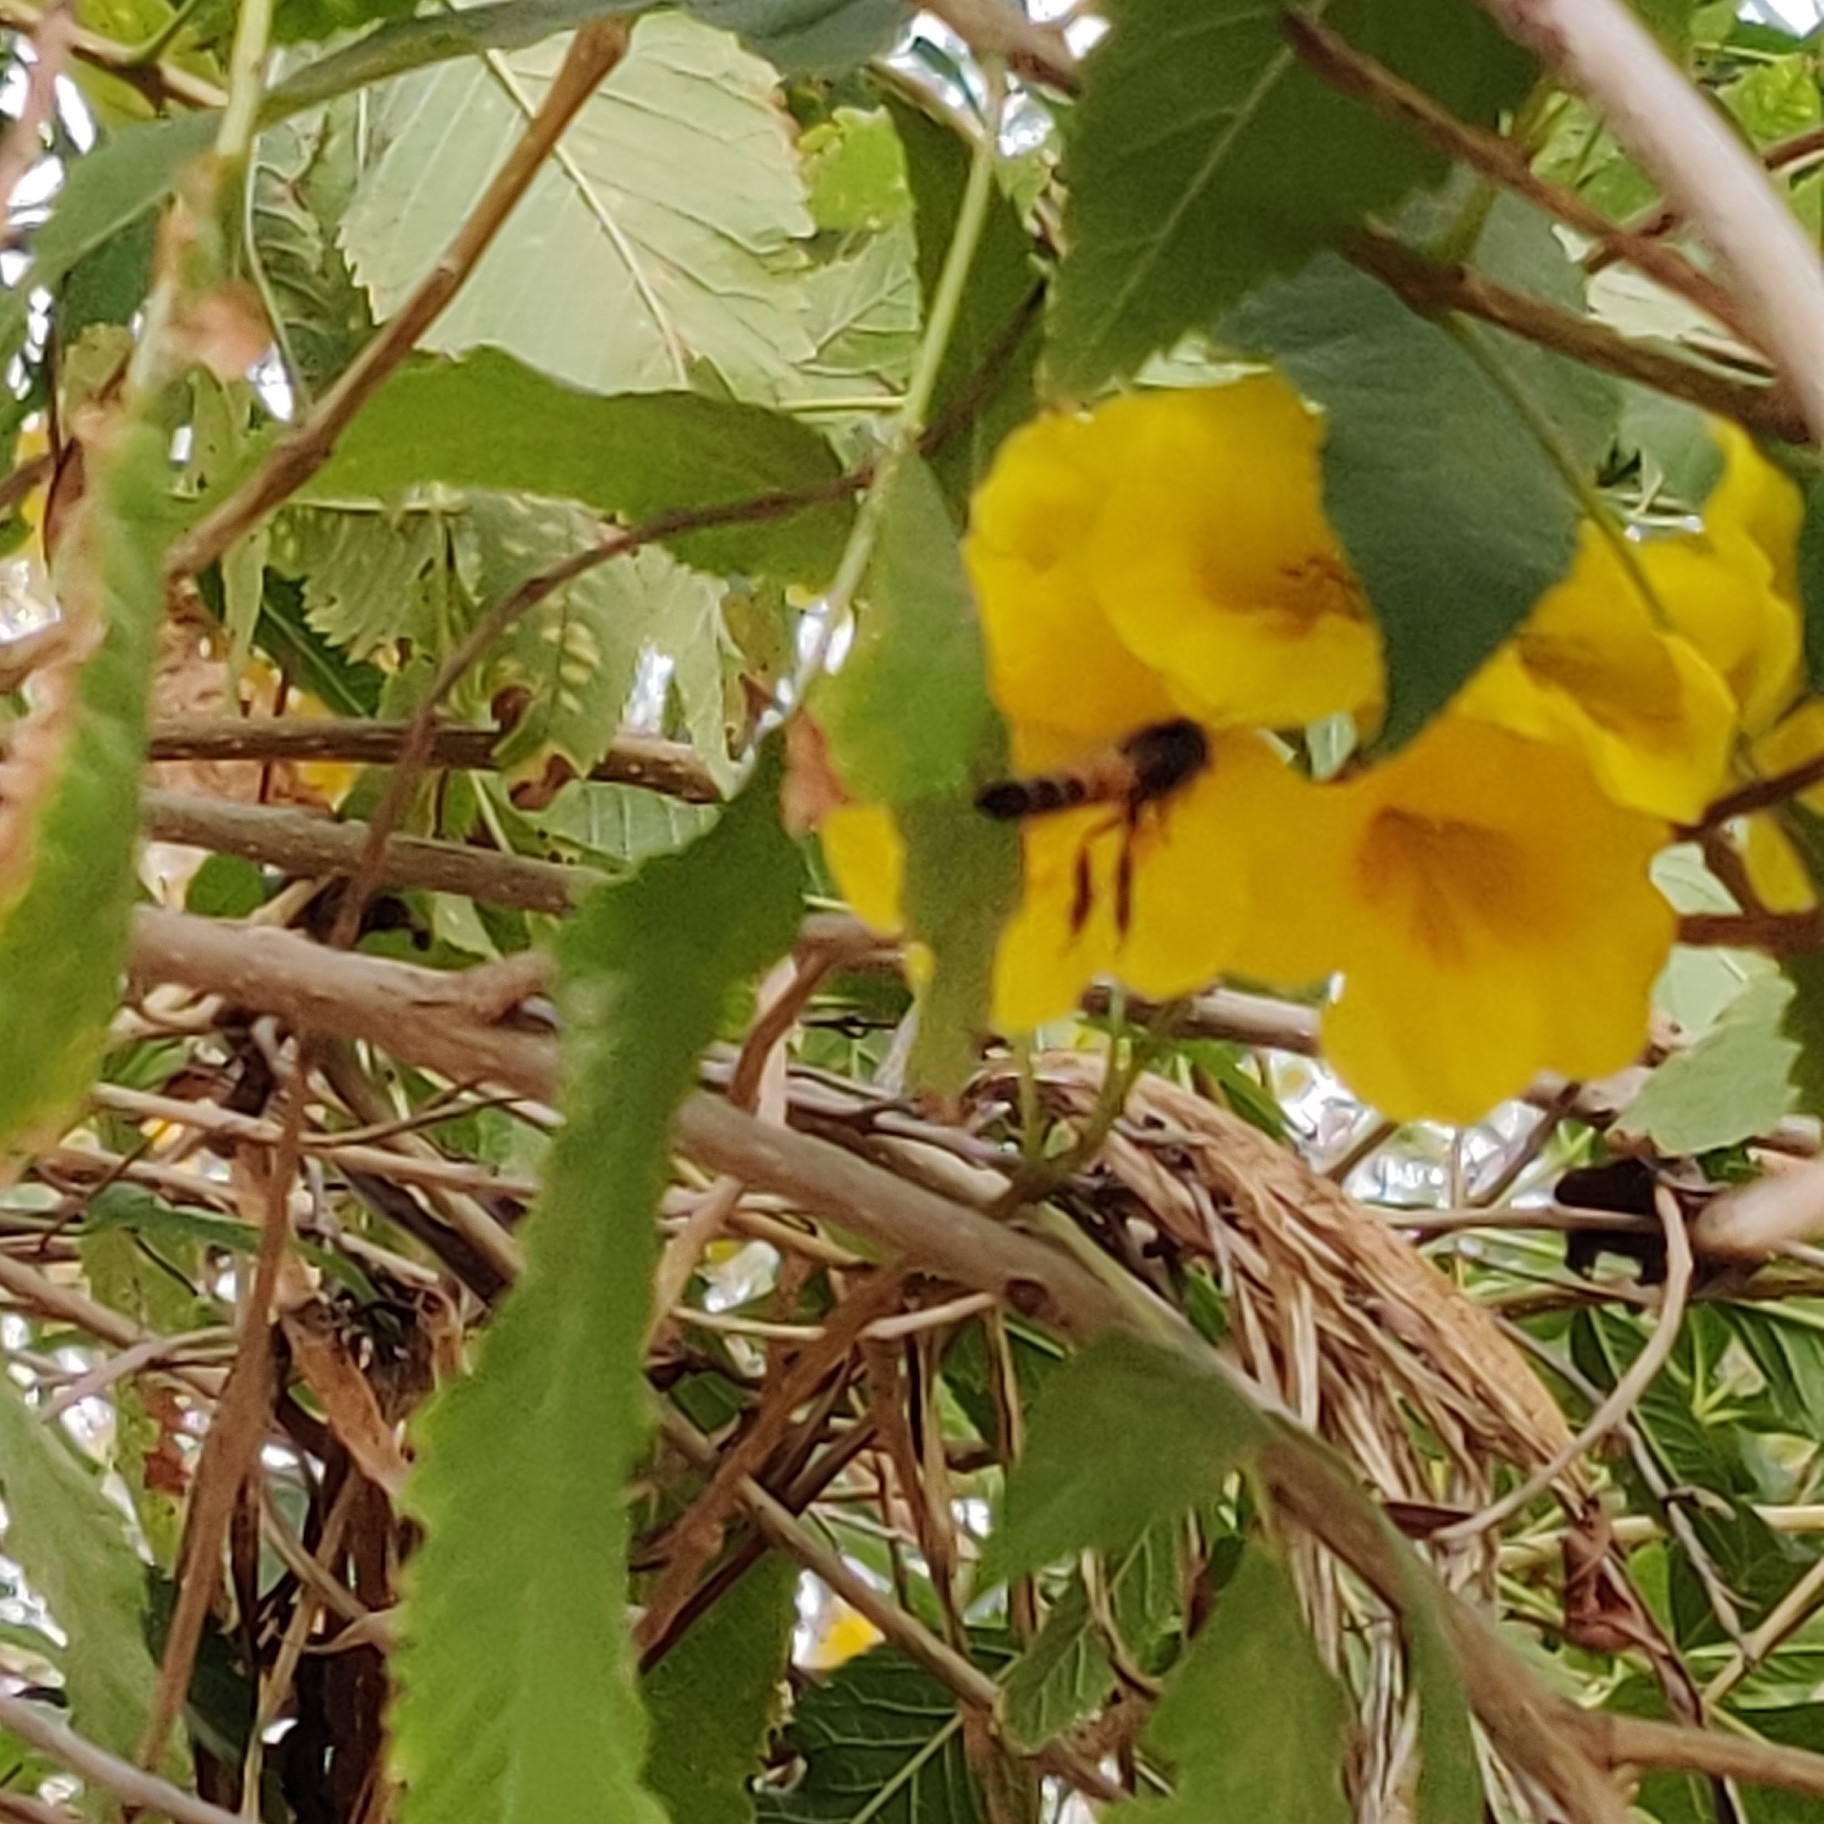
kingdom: Animalia
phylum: Arthropoda
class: Insecta
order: Hymenoptera
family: Apidae
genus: Apis
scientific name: Apis dorsata
